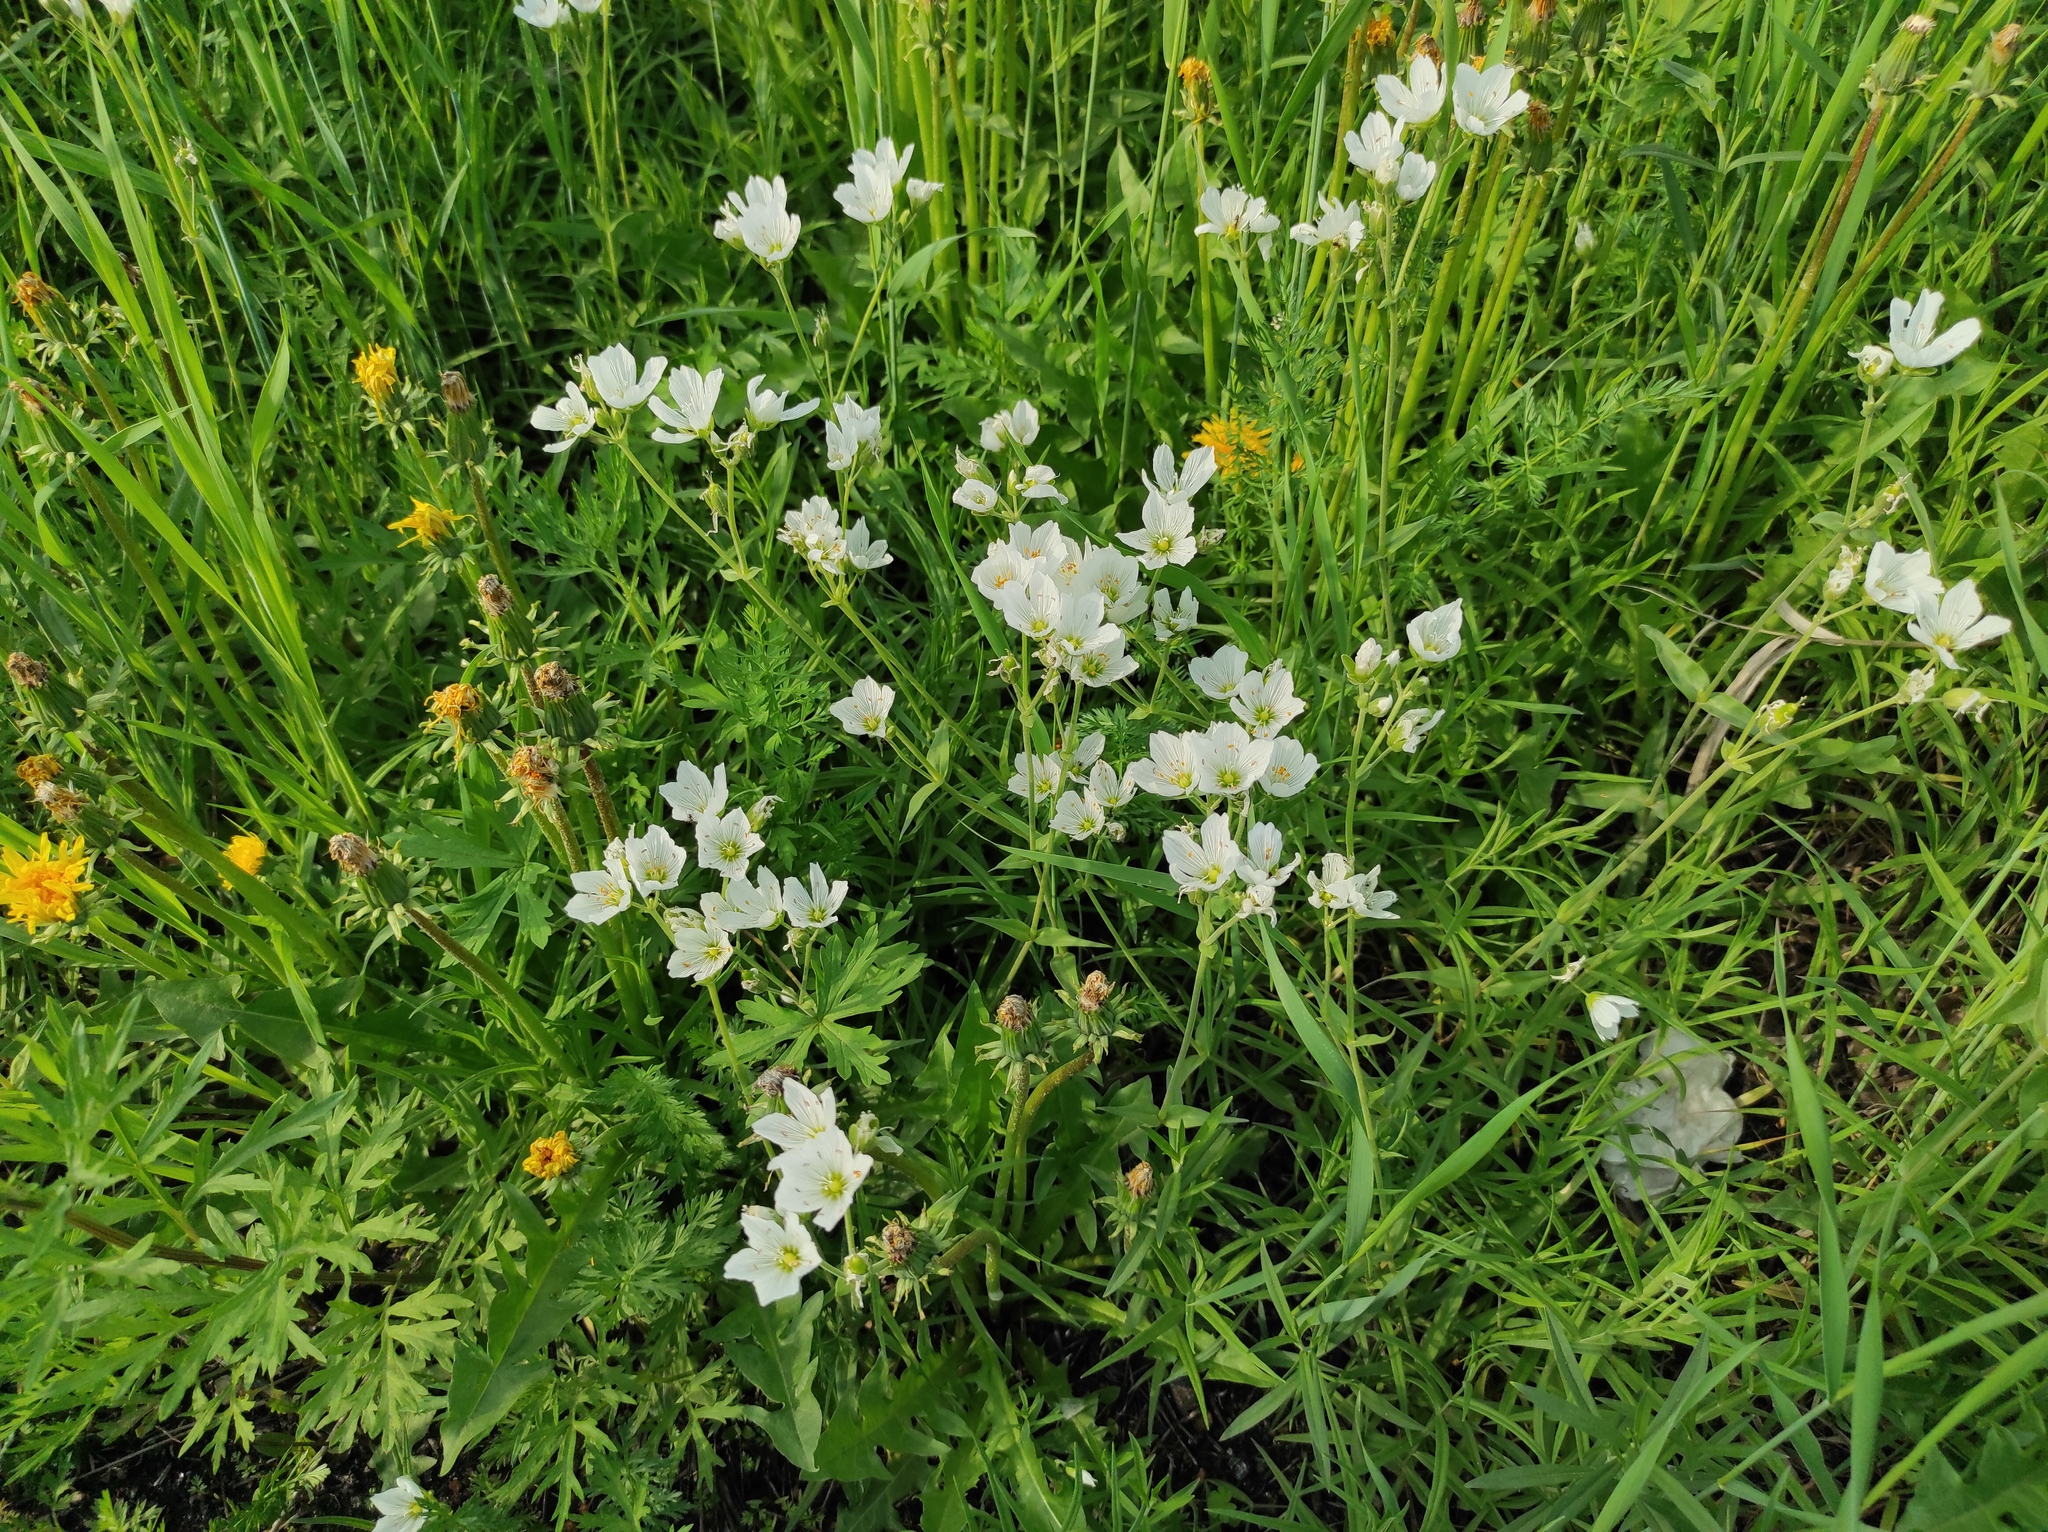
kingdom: Plantae
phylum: Tracheophyta
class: Magnoliopsida
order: Asterales
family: Asteraceae
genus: Taraxacum
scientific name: Taraxacum officinale
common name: Common dandelion
